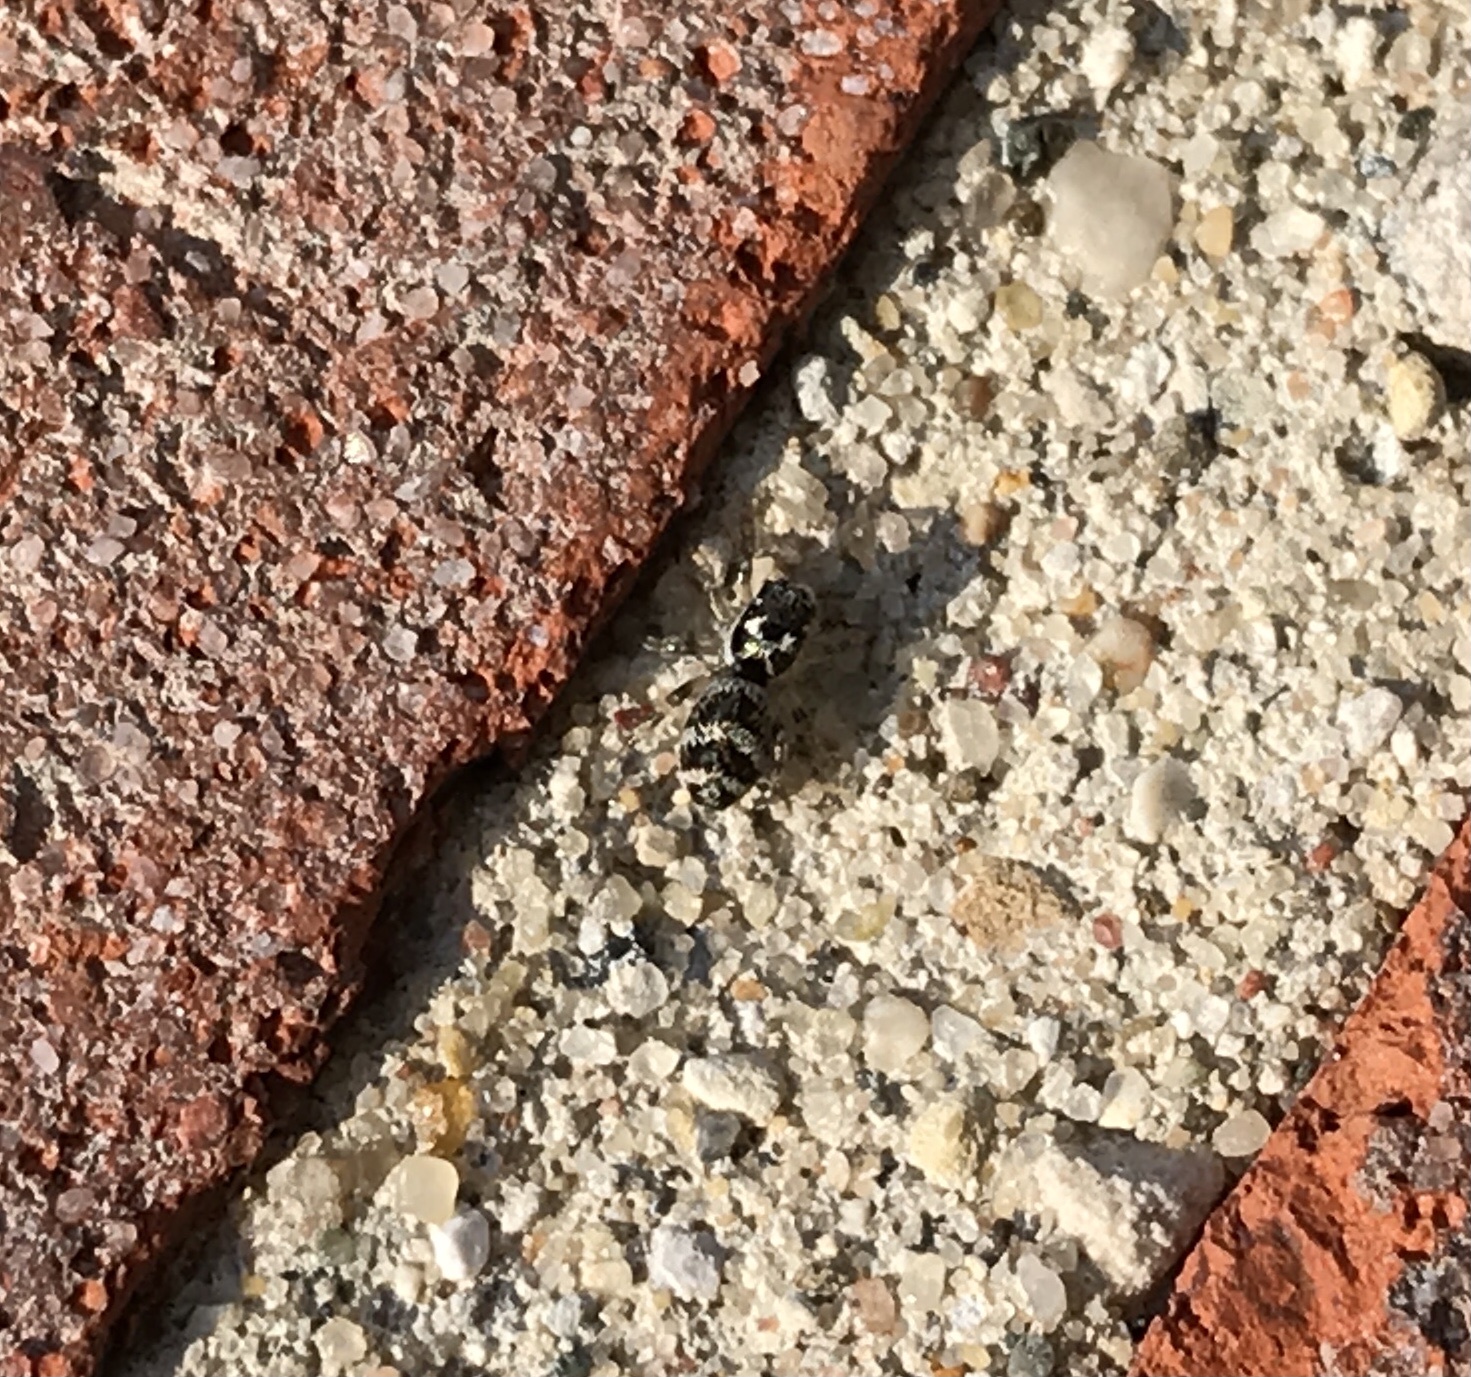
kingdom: Animalia
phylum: Arthropoda
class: Arachnida
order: Araneae
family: Salticidae
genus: Salticus
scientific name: Salticus scenicus
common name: Zebra jumper
